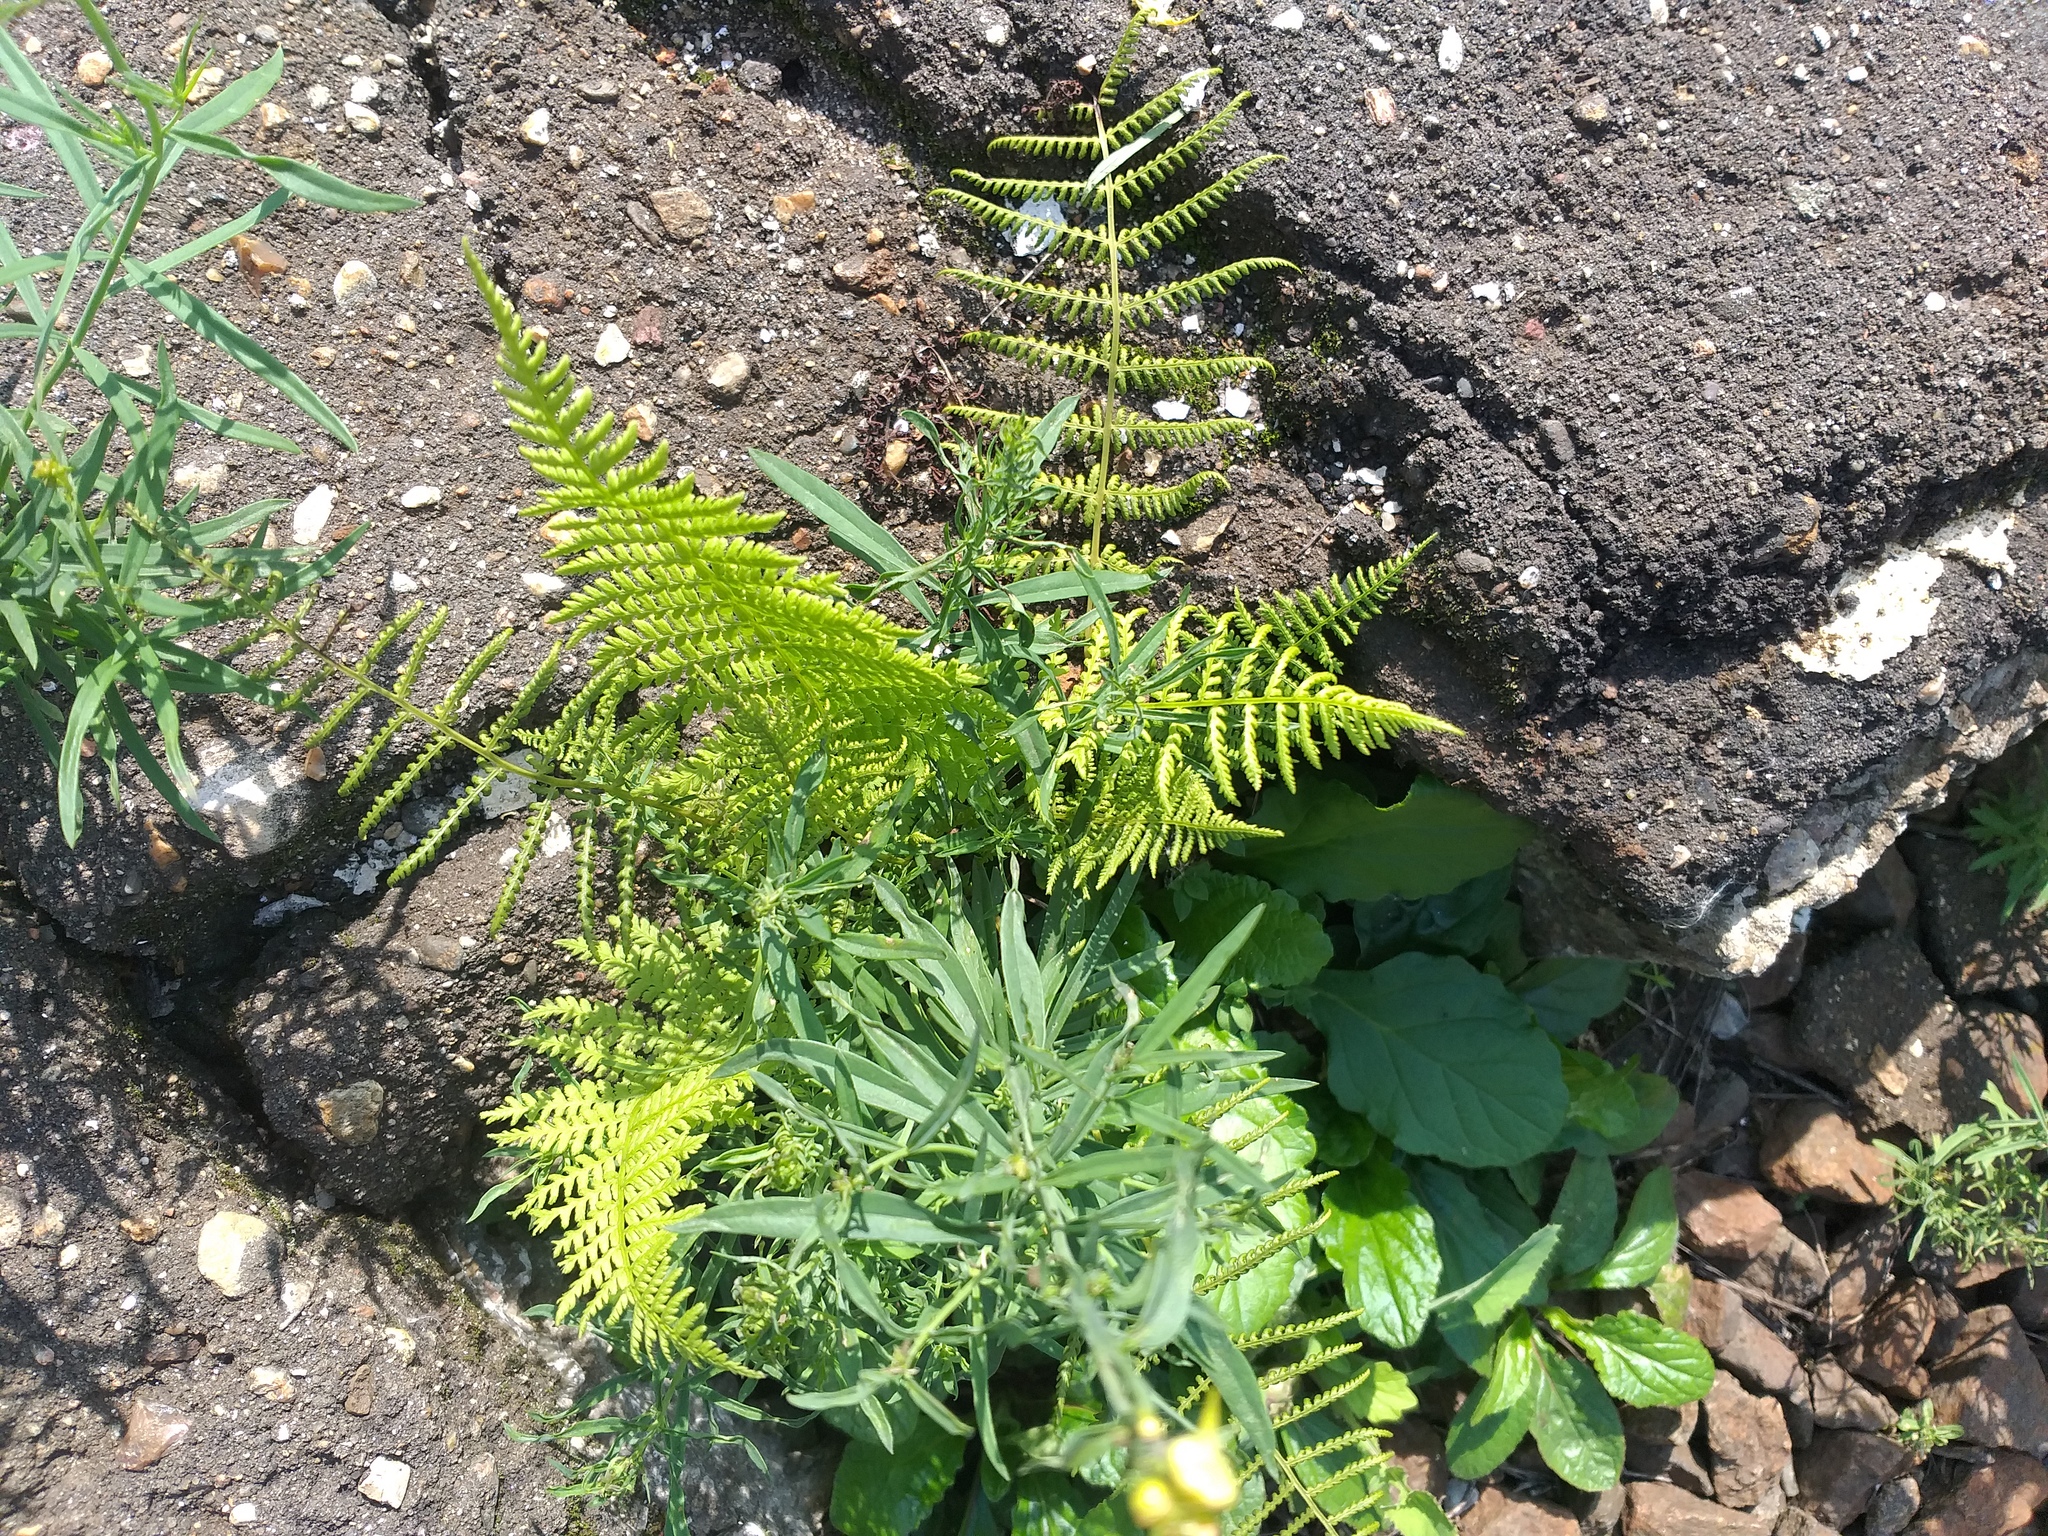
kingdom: Plantae
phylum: Tracheophyta
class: Polypodiopsida
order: Polypodiales
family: Athyriaceae
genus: Athyrium
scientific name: Athyrium filix-femina
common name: Lady fern
